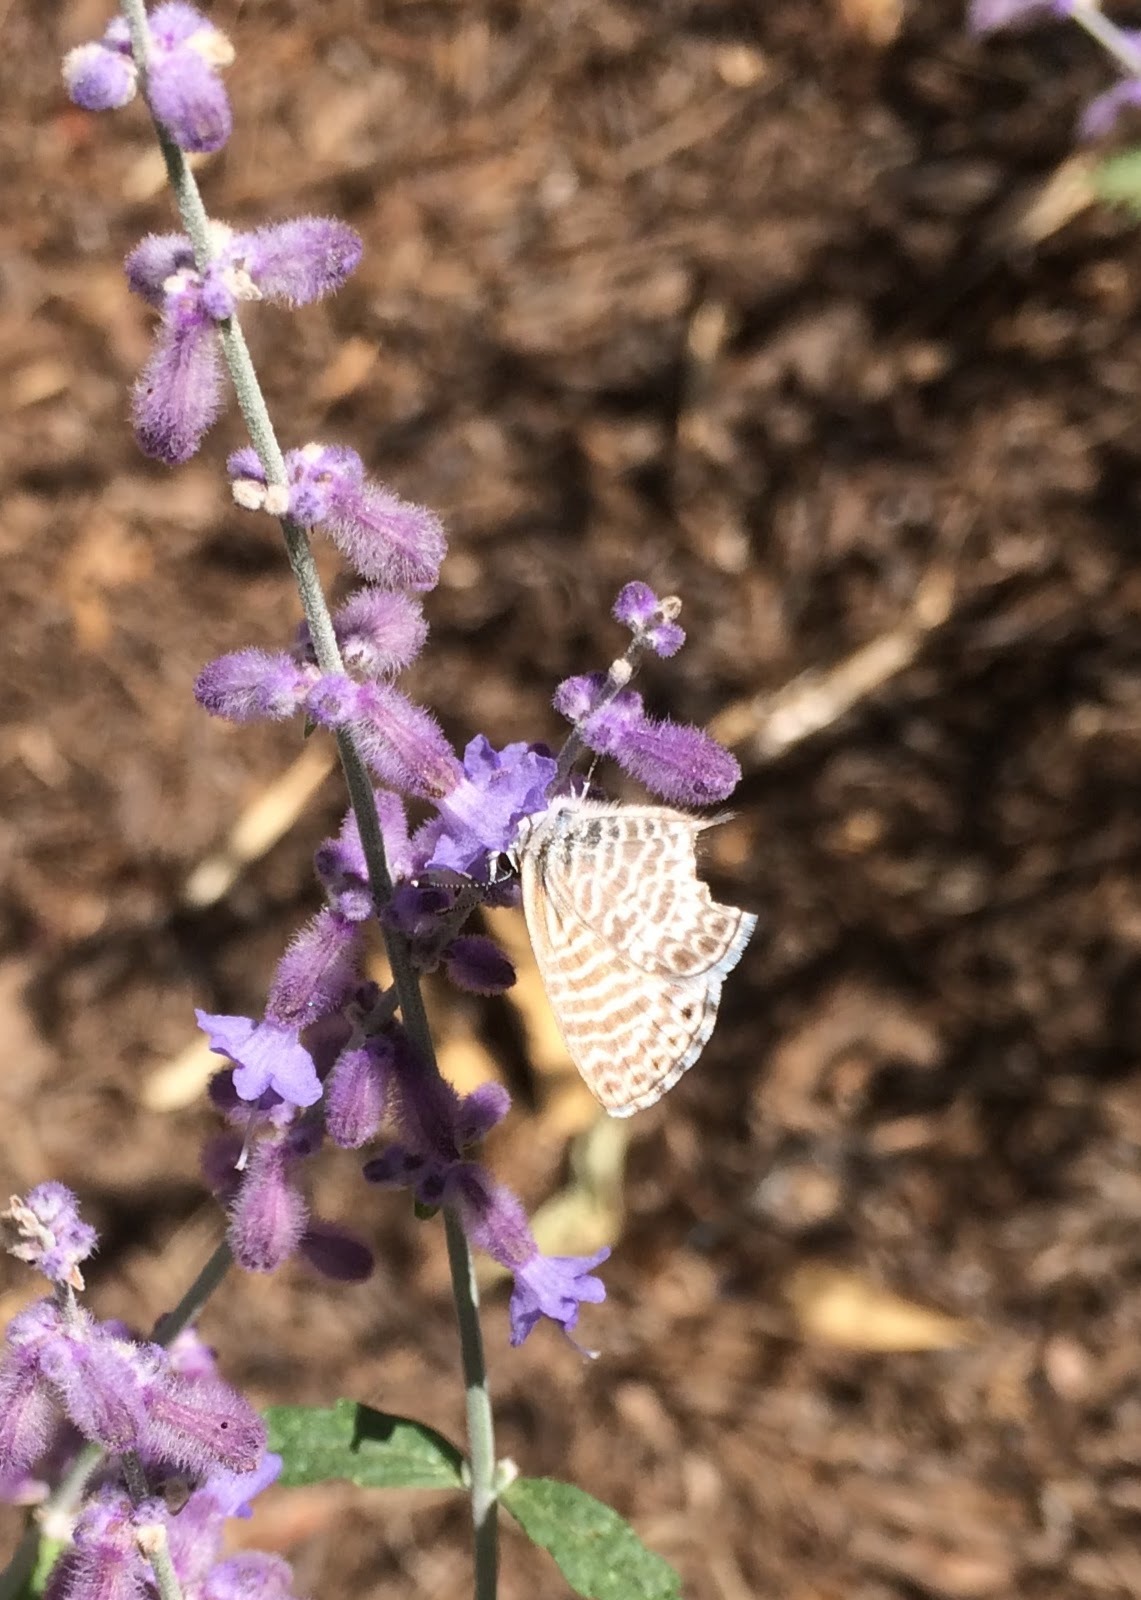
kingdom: Animalia
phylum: Arthropoda
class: Insecta
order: Lepidoptera
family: Lycaenidae
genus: Leptotes
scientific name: Leptotes marina
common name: Marine blue
